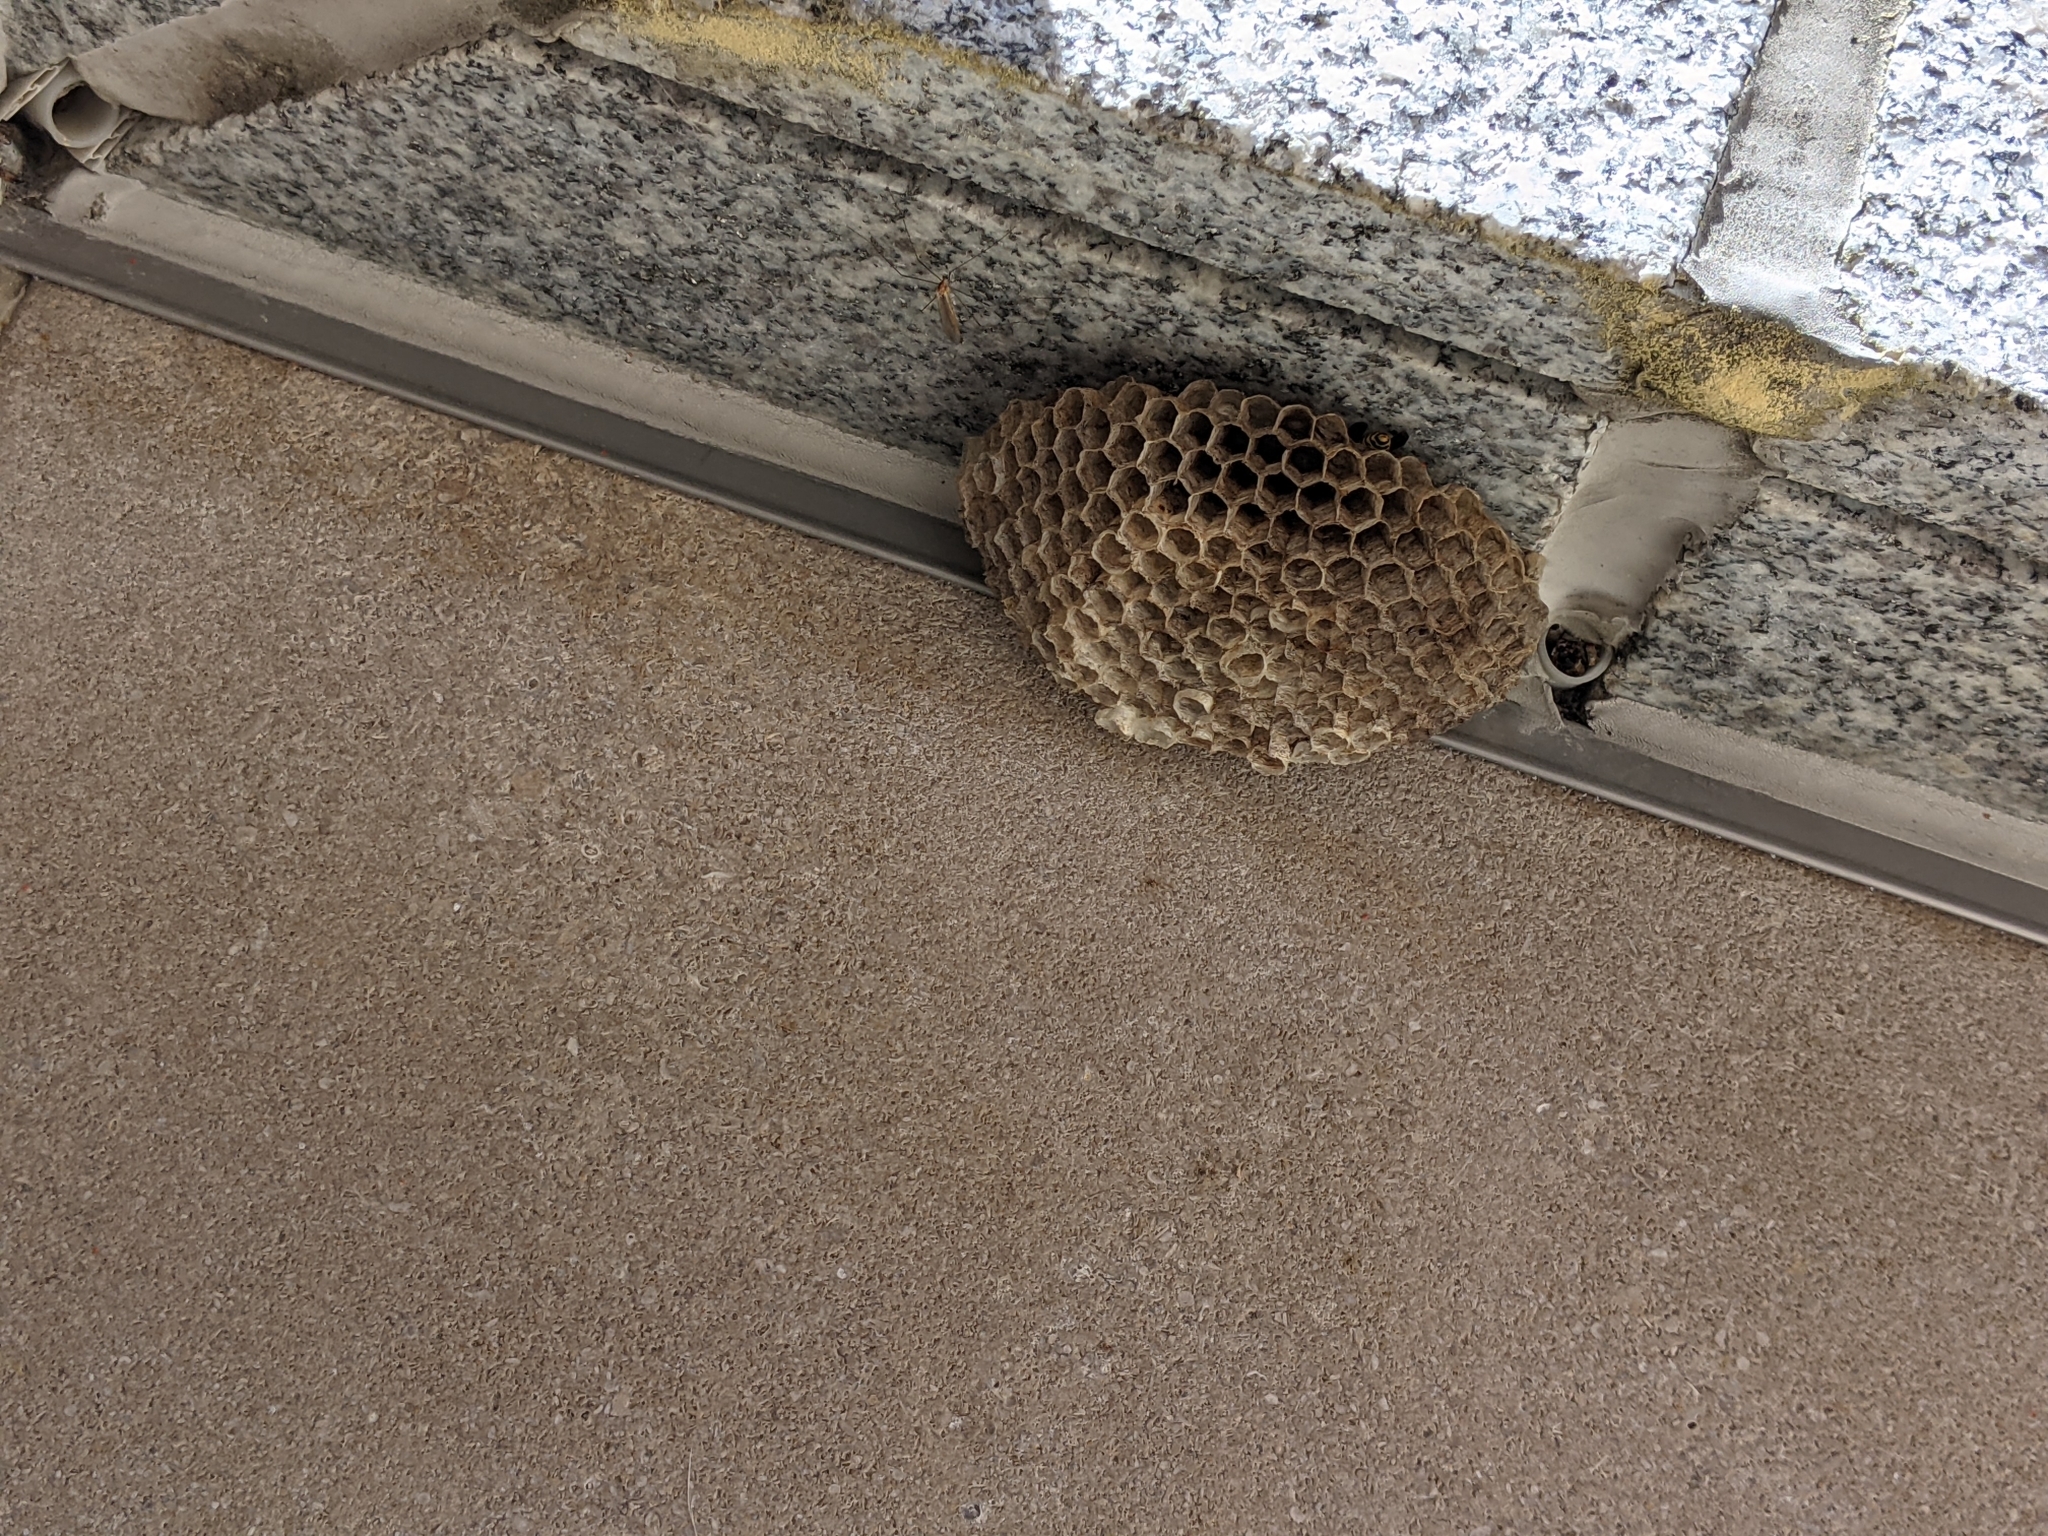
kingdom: Animalia
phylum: Arthropoda
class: Insecta
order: Hymenoptera
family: Eumenidae
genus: Polistes
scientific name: Polistes dominula
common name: Paper wasp
